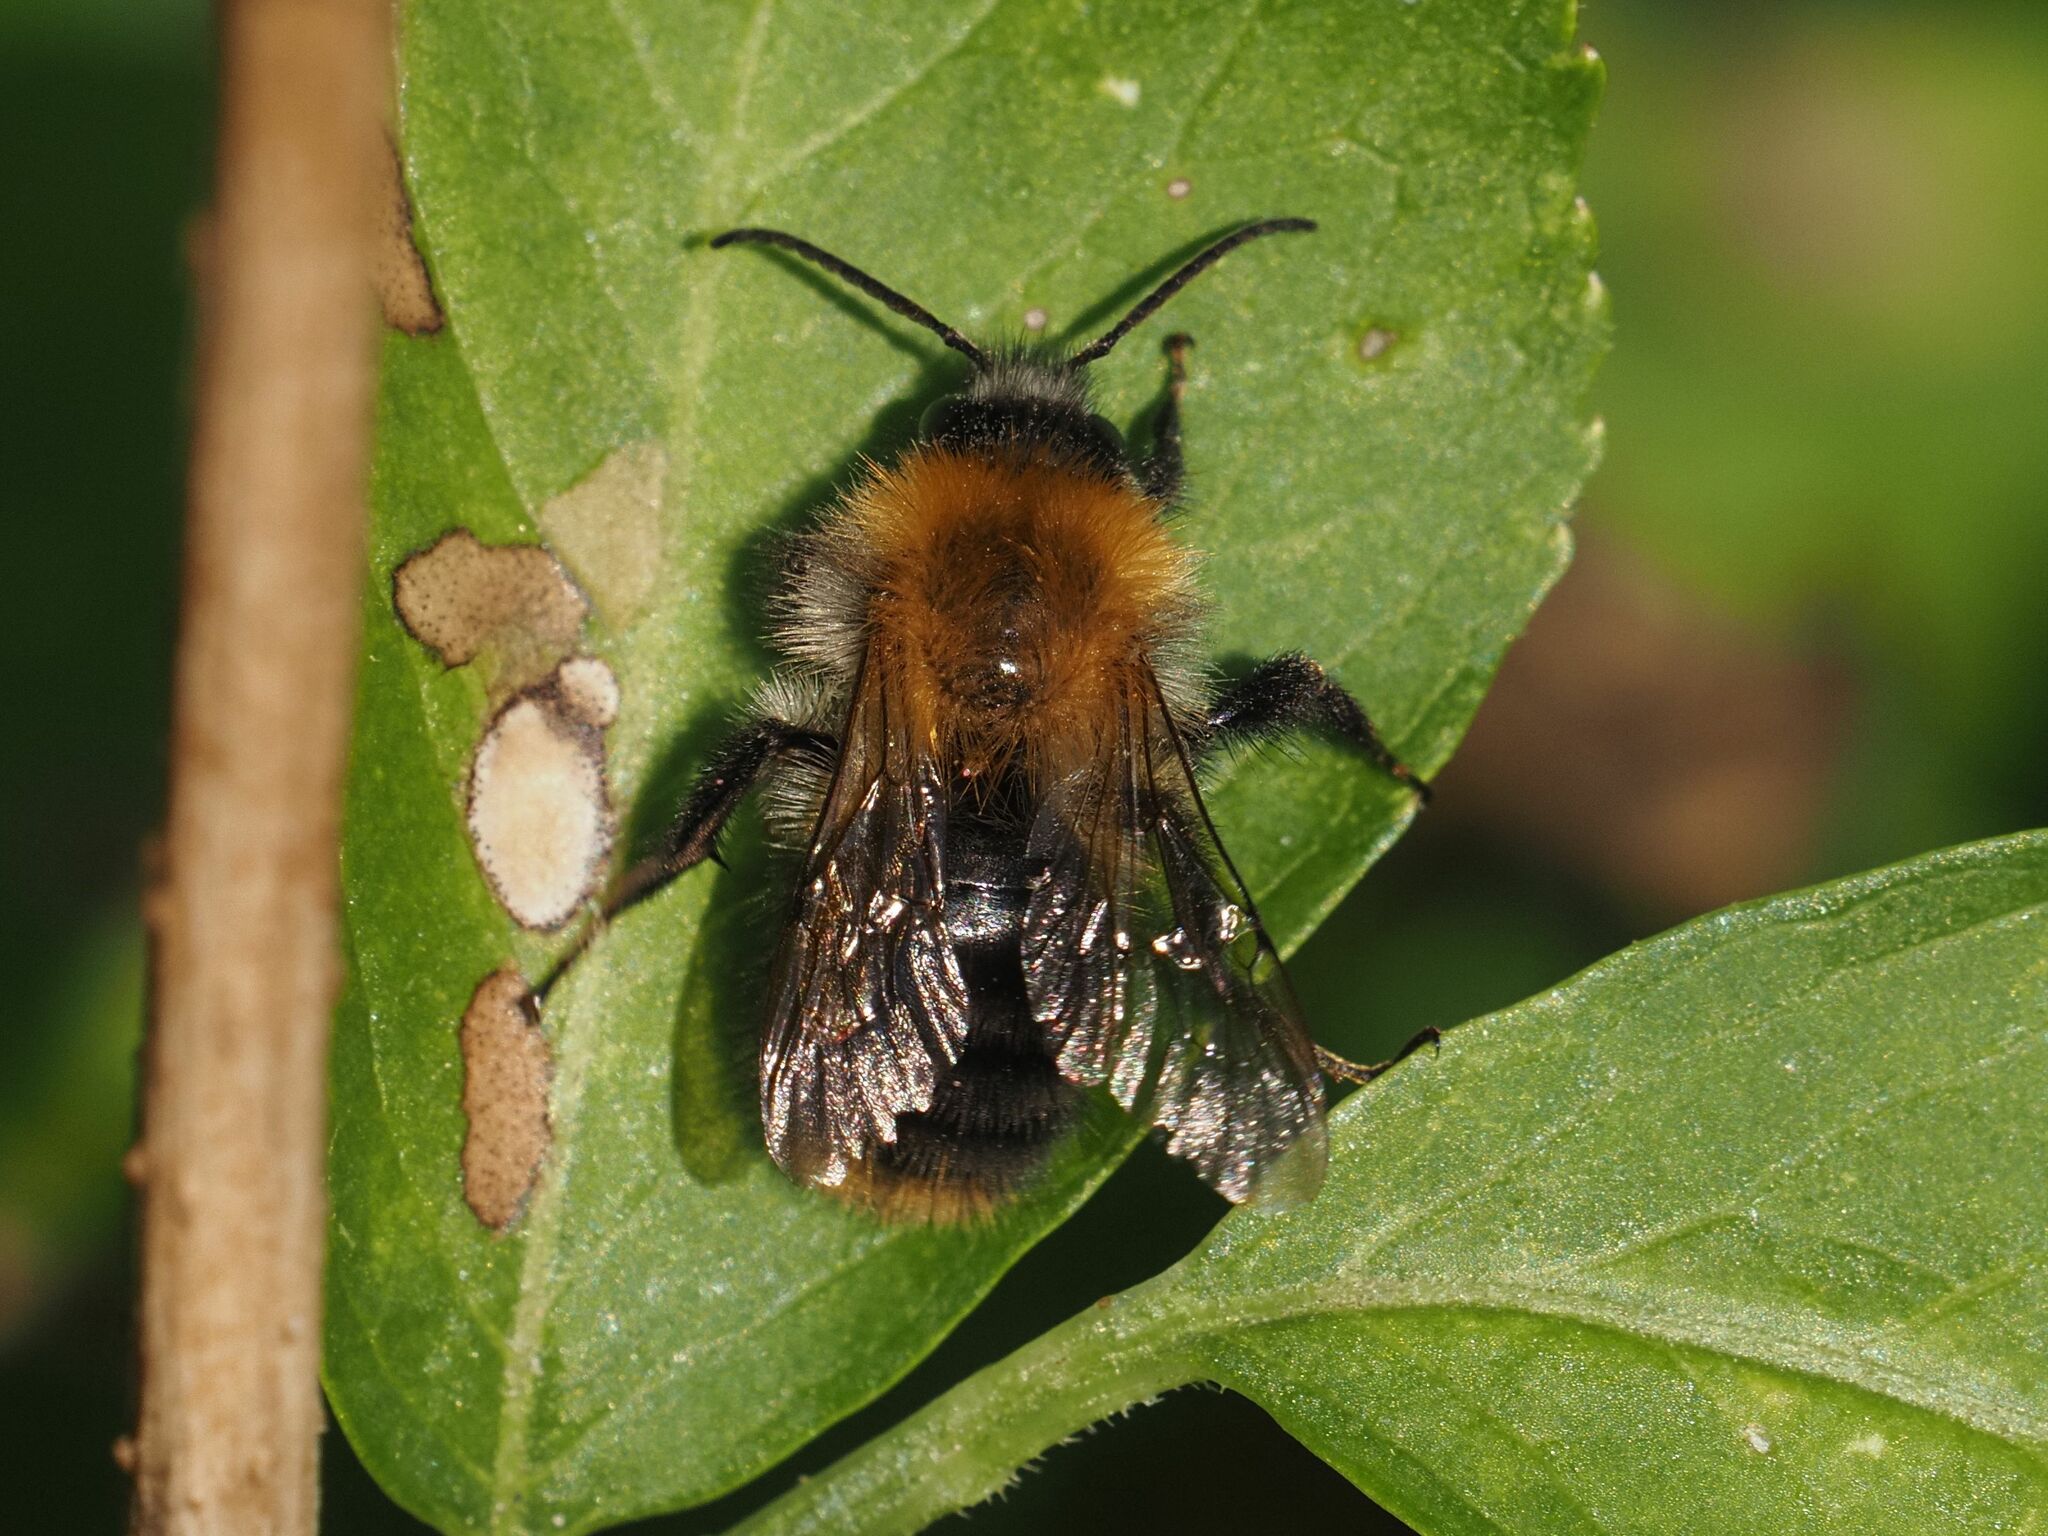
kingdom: Animalia
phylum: Arthropoda
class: Insecta
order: Hymenoptera
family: Apidae
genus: Bombus
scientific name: Bombus pascuorum
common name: Common carder bee
